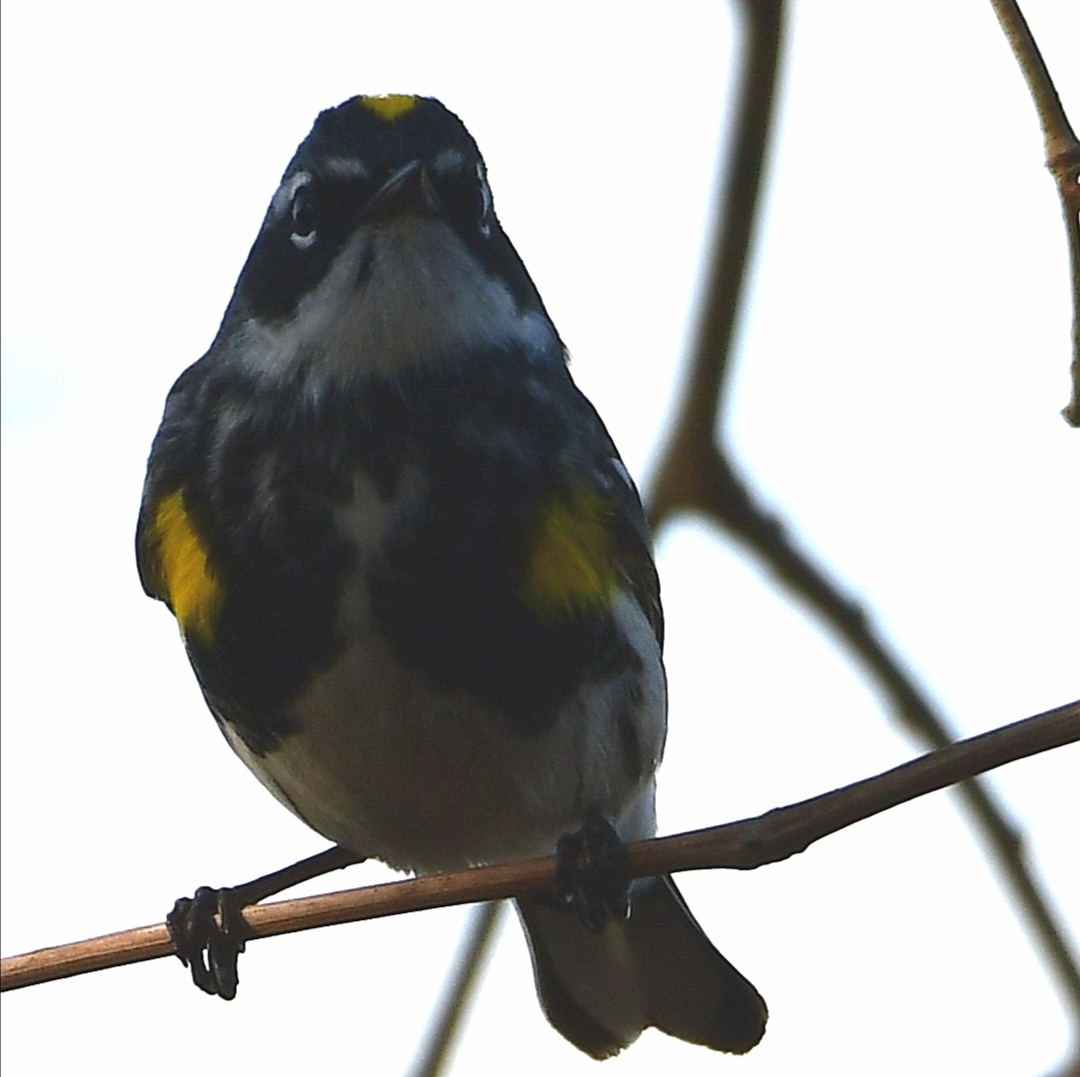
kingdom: Animalia
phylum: Chordata
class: Aves
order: Passeriformes
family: Parulidae
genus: Setophaga
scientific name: Setophaga coronata
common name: Myrtle warbler
